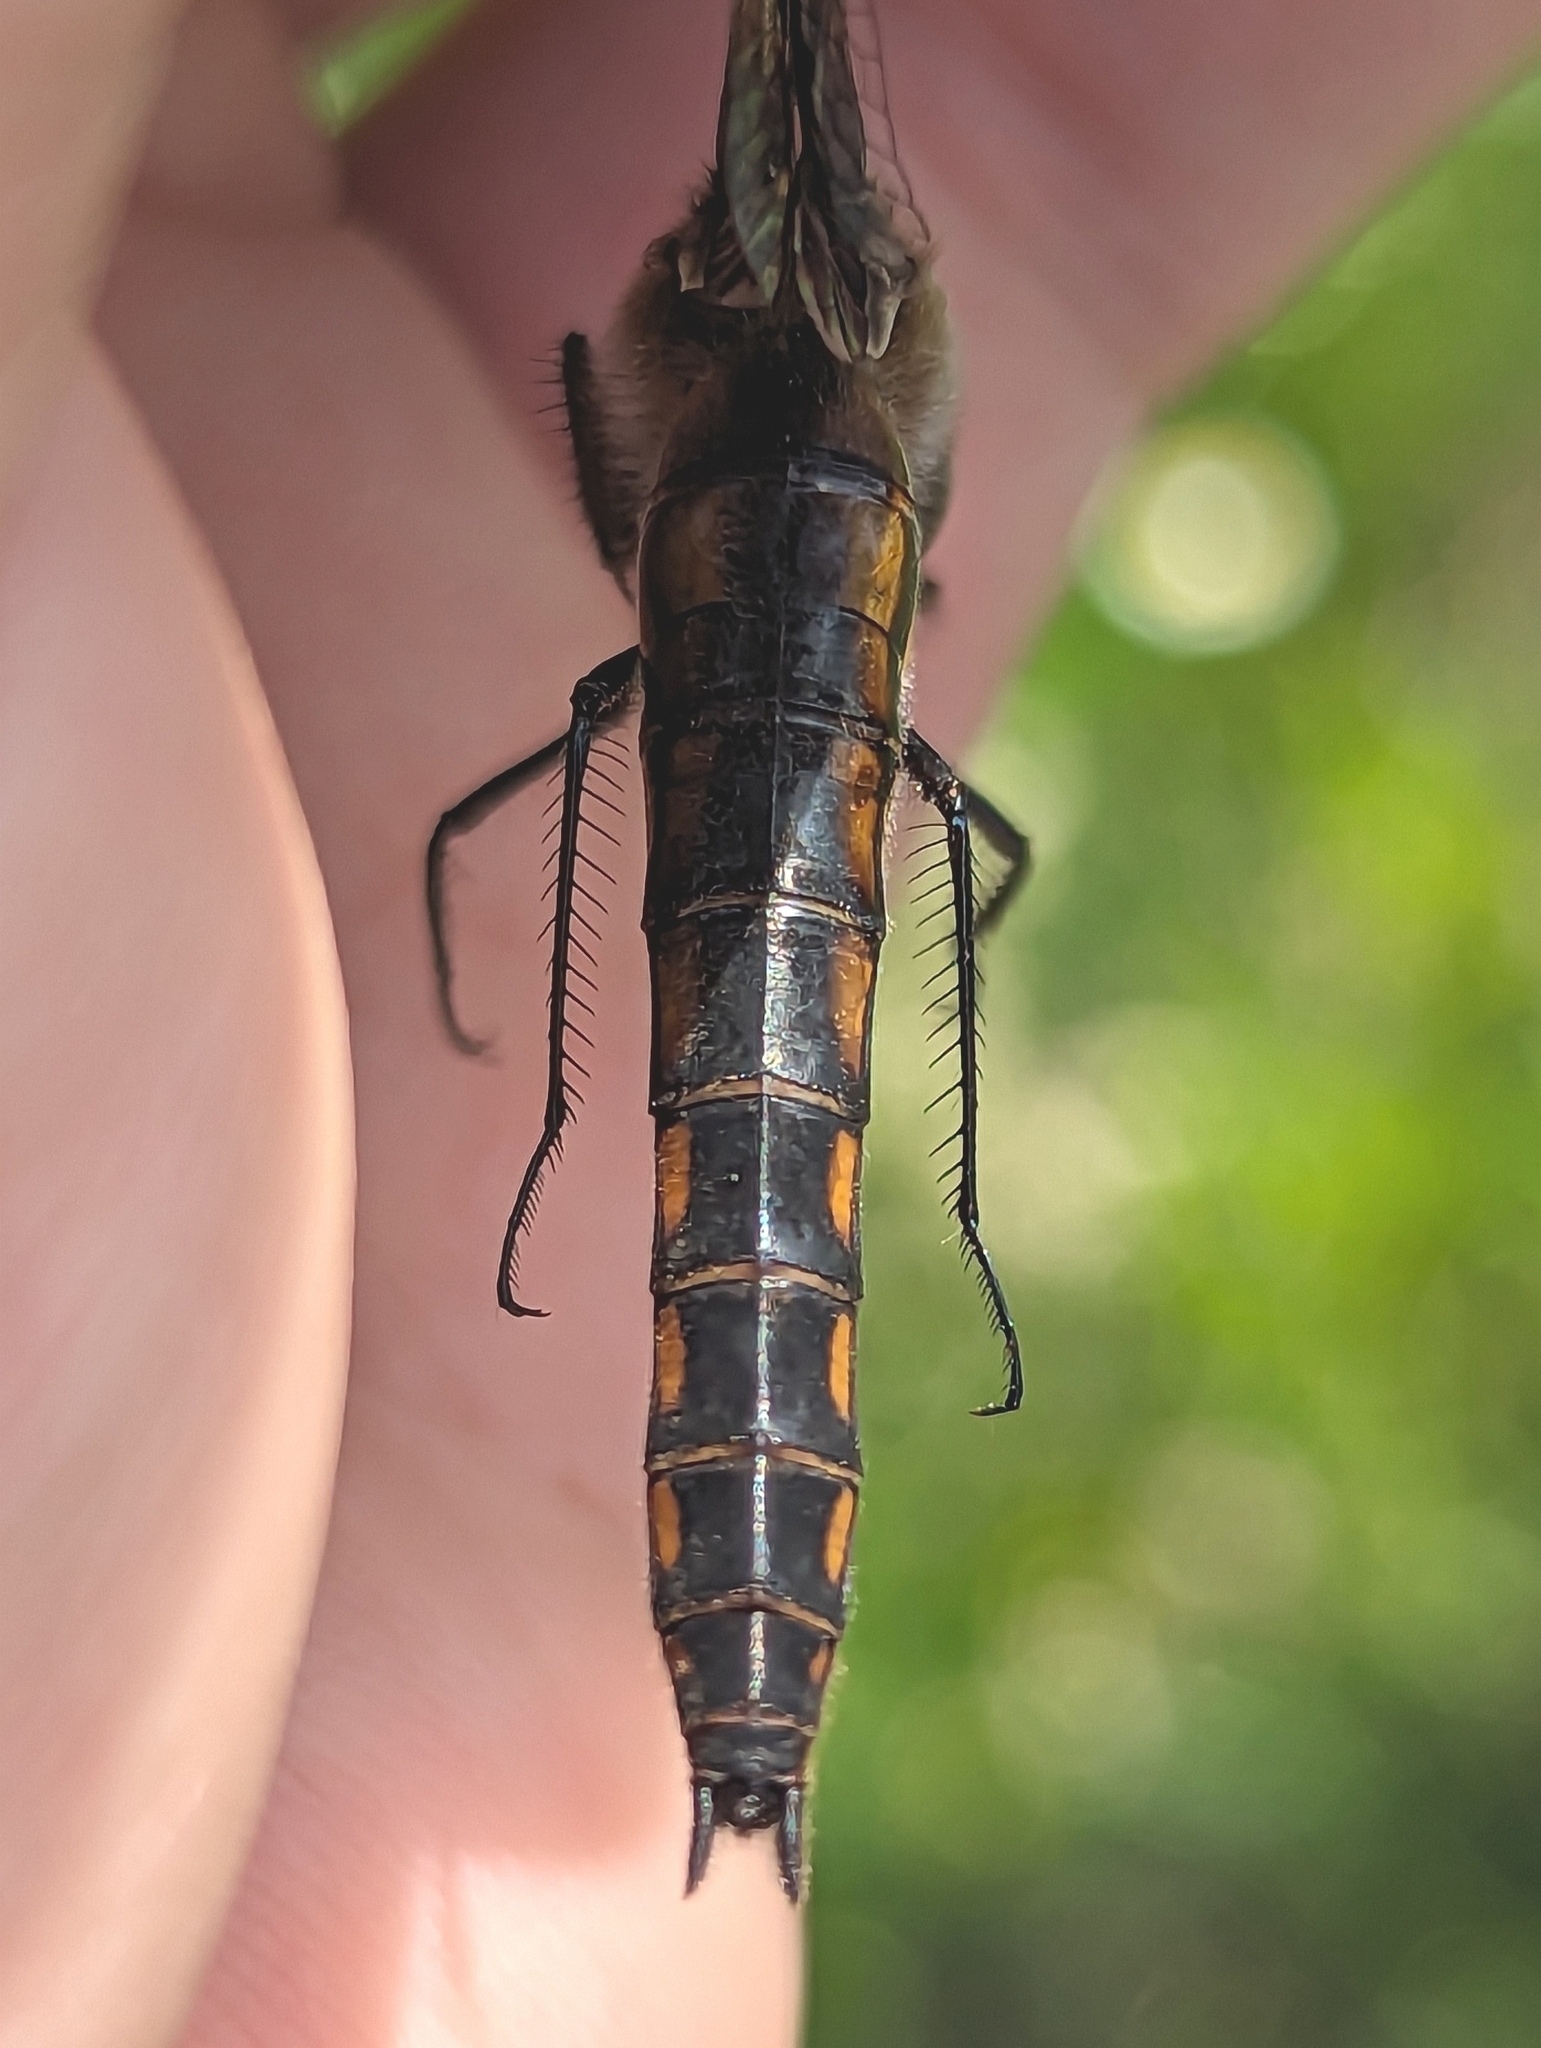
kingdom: Animalia
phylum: Arthropoda
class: Insecta
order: Odonata
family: Corduliidae
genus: Epitheca
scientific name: Epitheca cynosura
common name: Common baskettail
